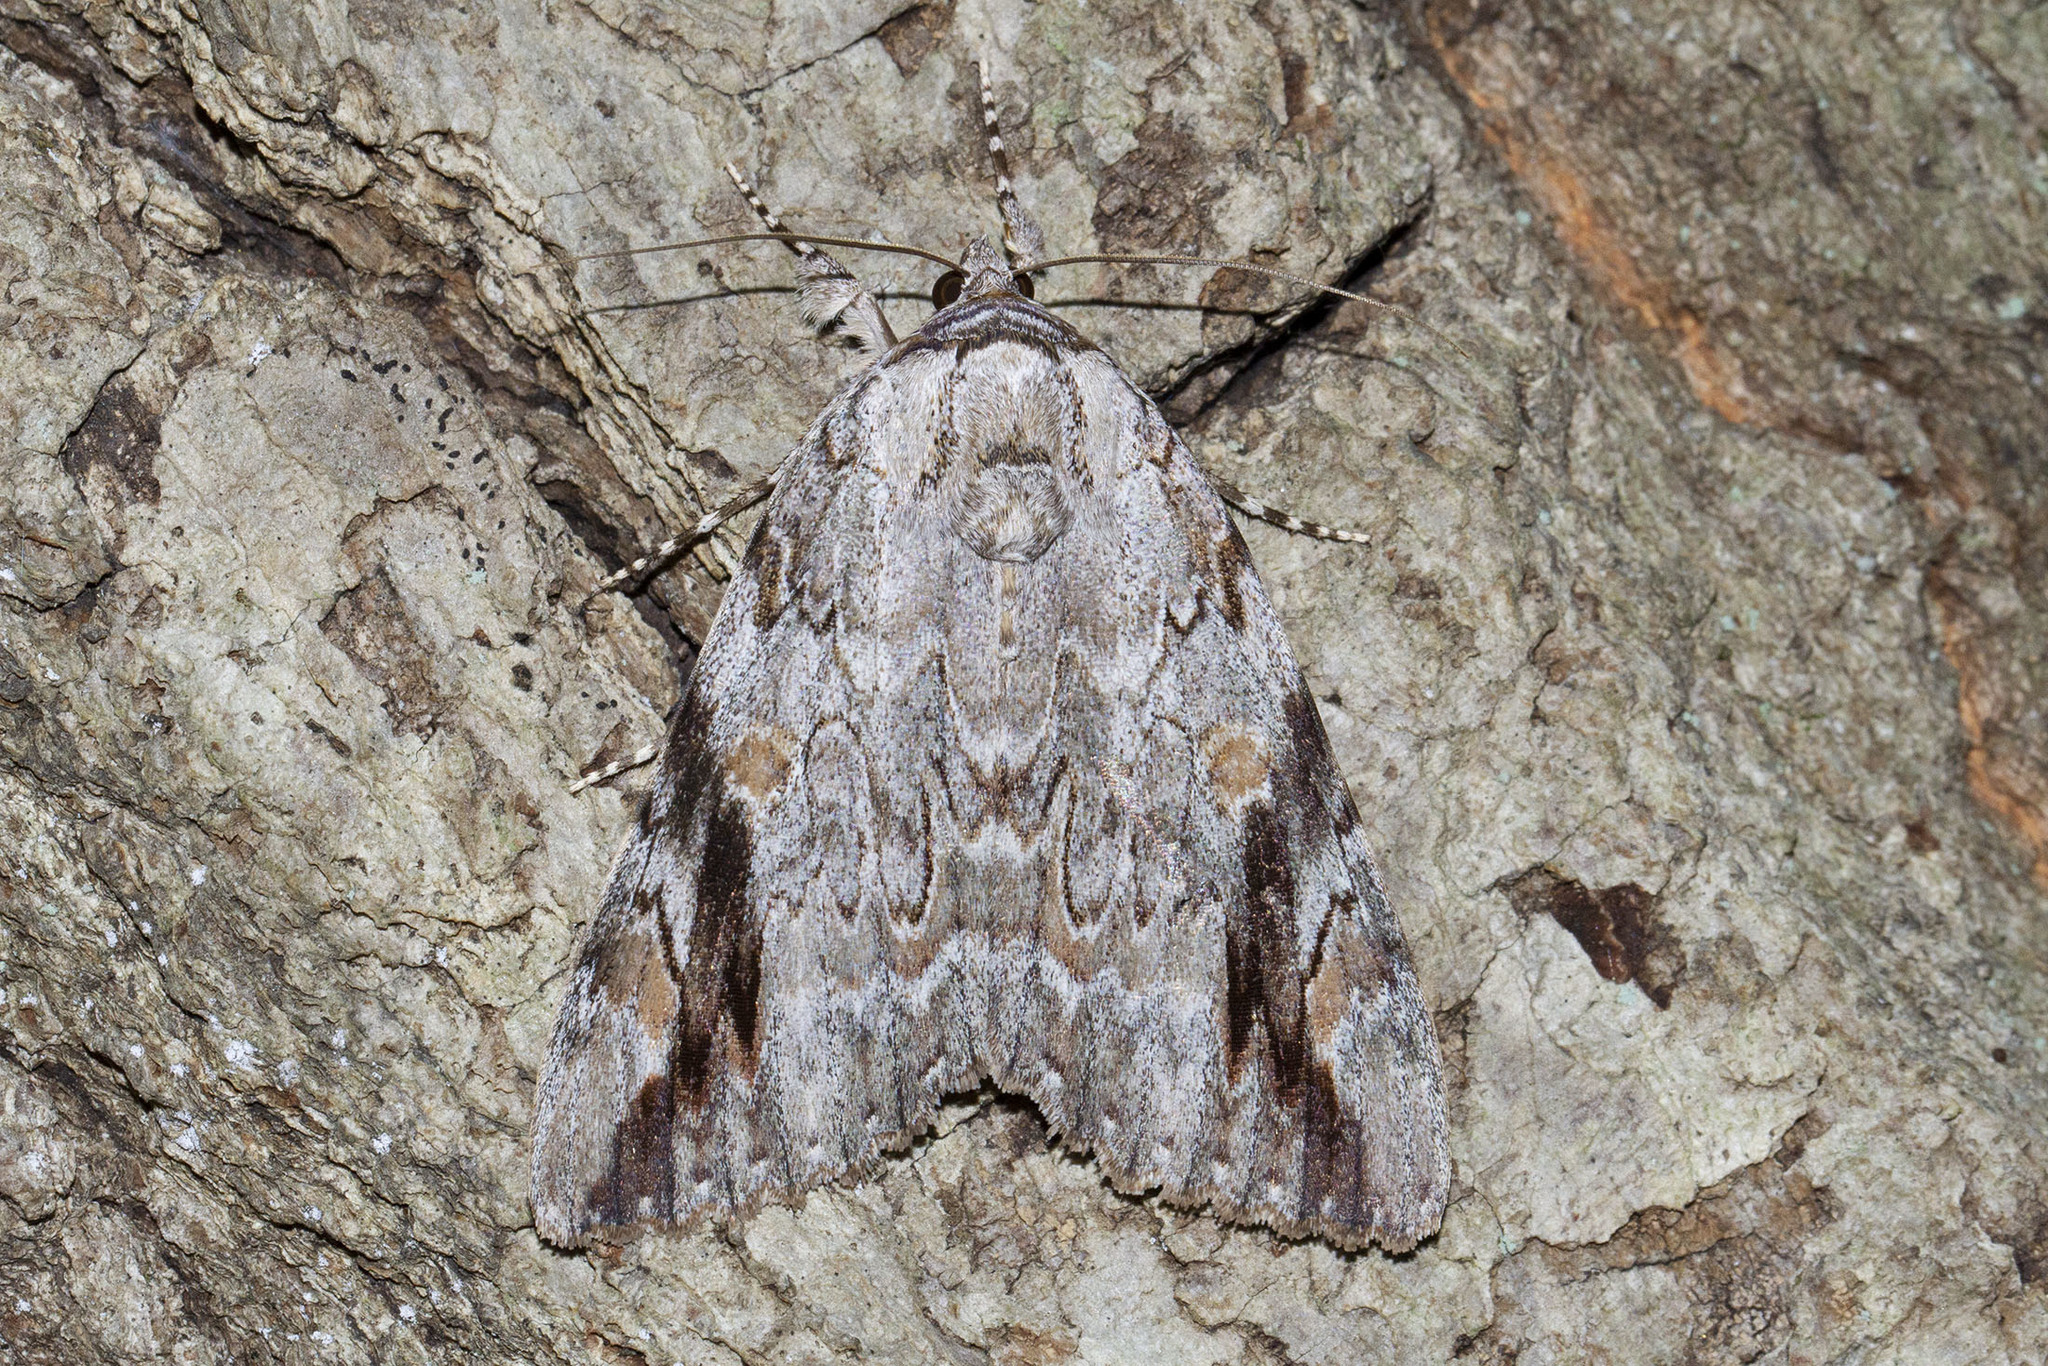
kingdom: Animalia
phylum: Arthropoda
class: Insecta
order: Lepidoptera
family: Erebidae
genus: Catocala
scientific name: Catocala maestosa
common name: Sad underwing
